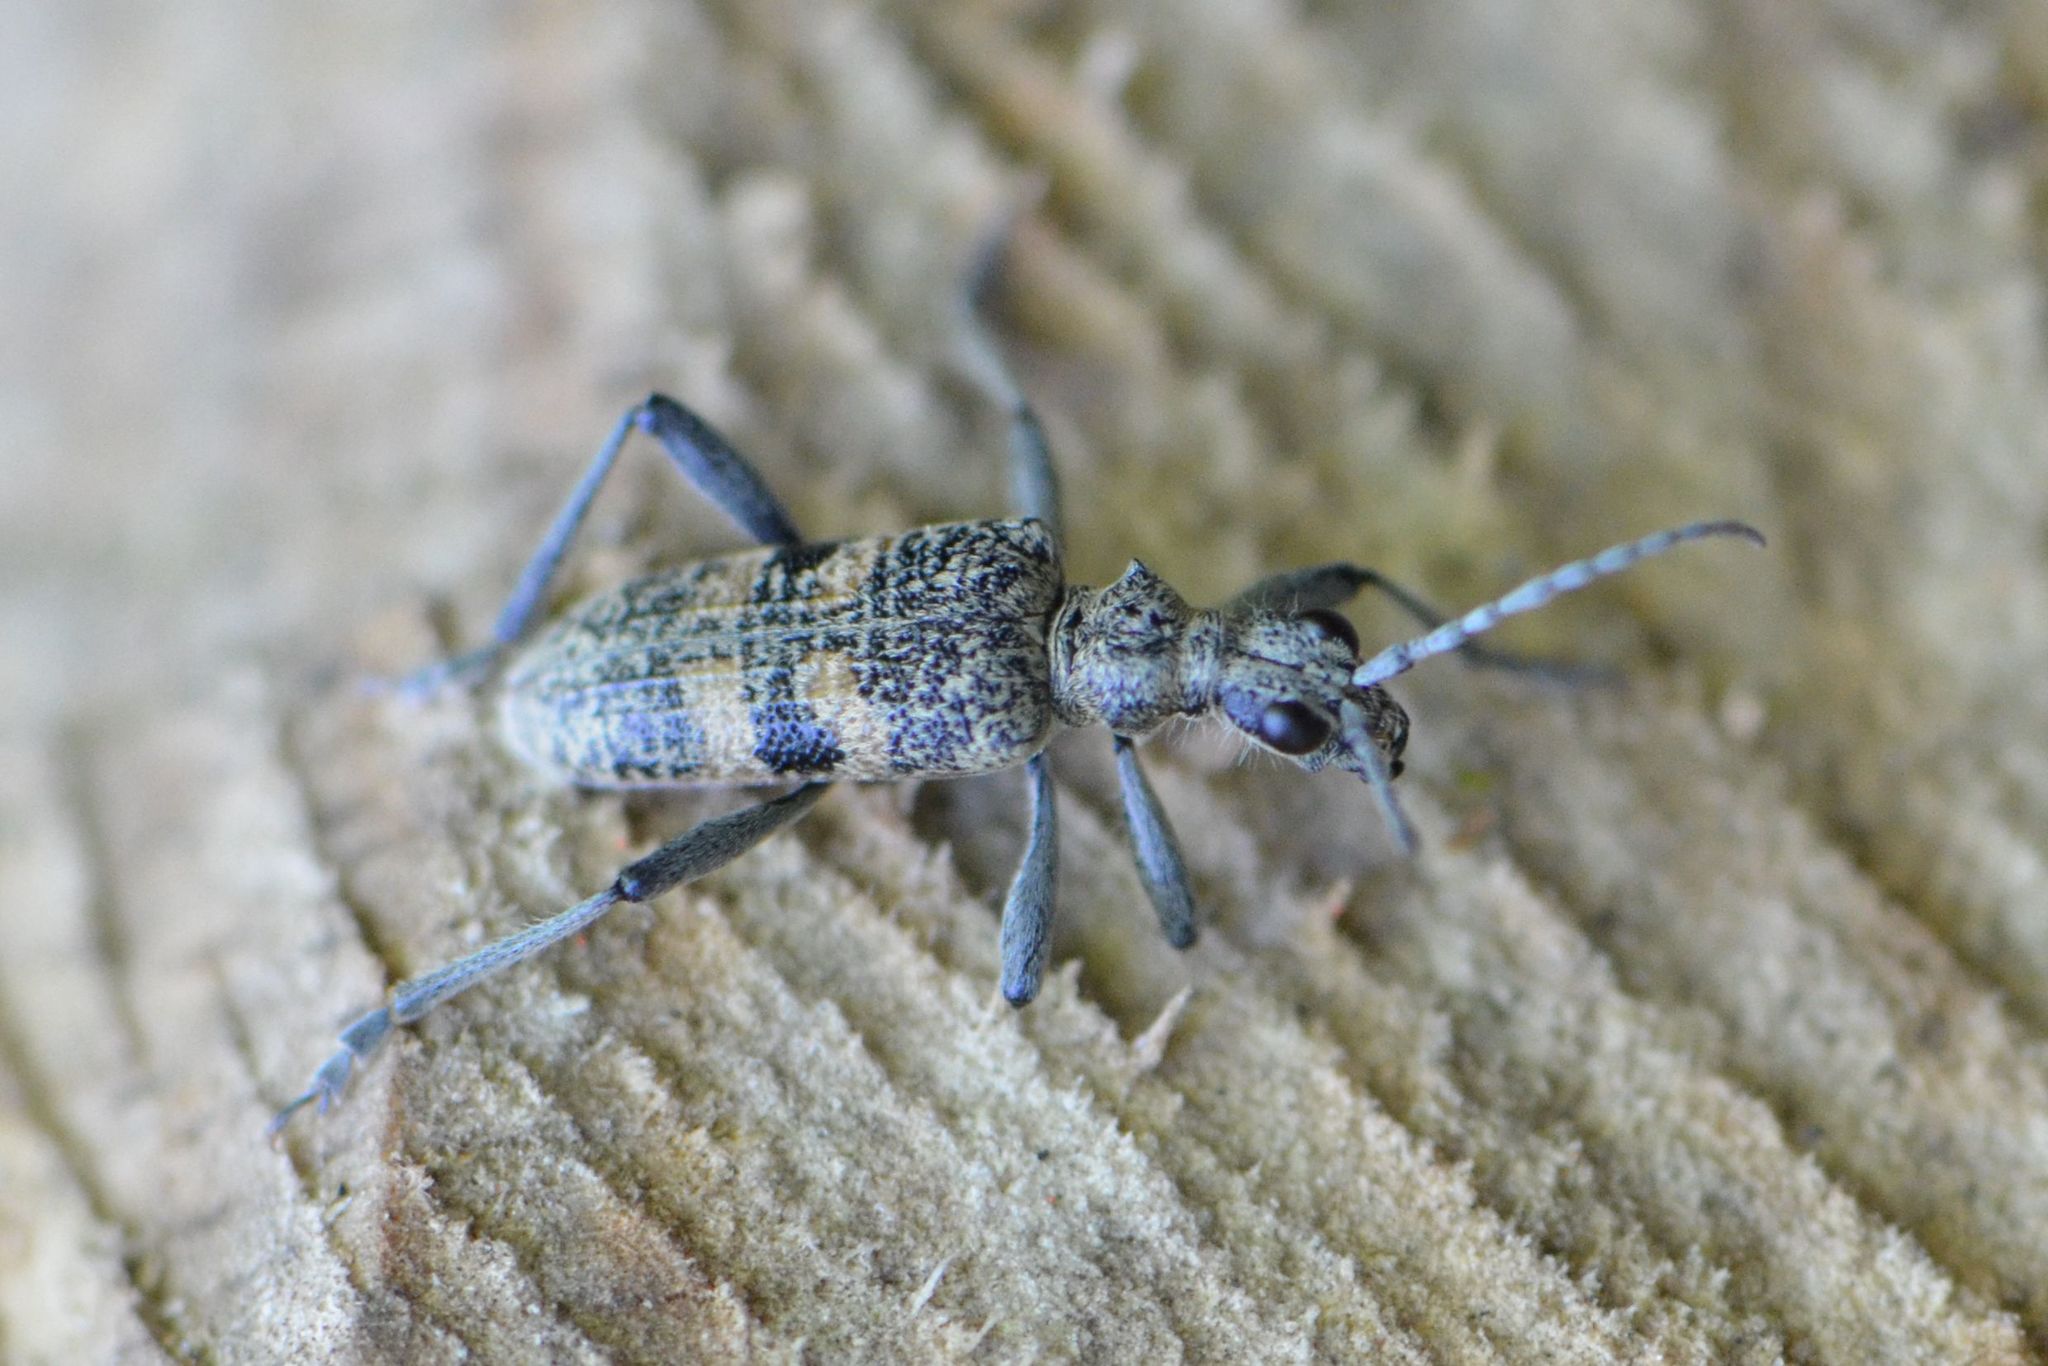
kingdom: Animalia
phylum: Arthropoda
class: Insecta
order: Coleoptera
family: Cerambycidae
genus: Rhagium
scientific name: Rhagium mordax
